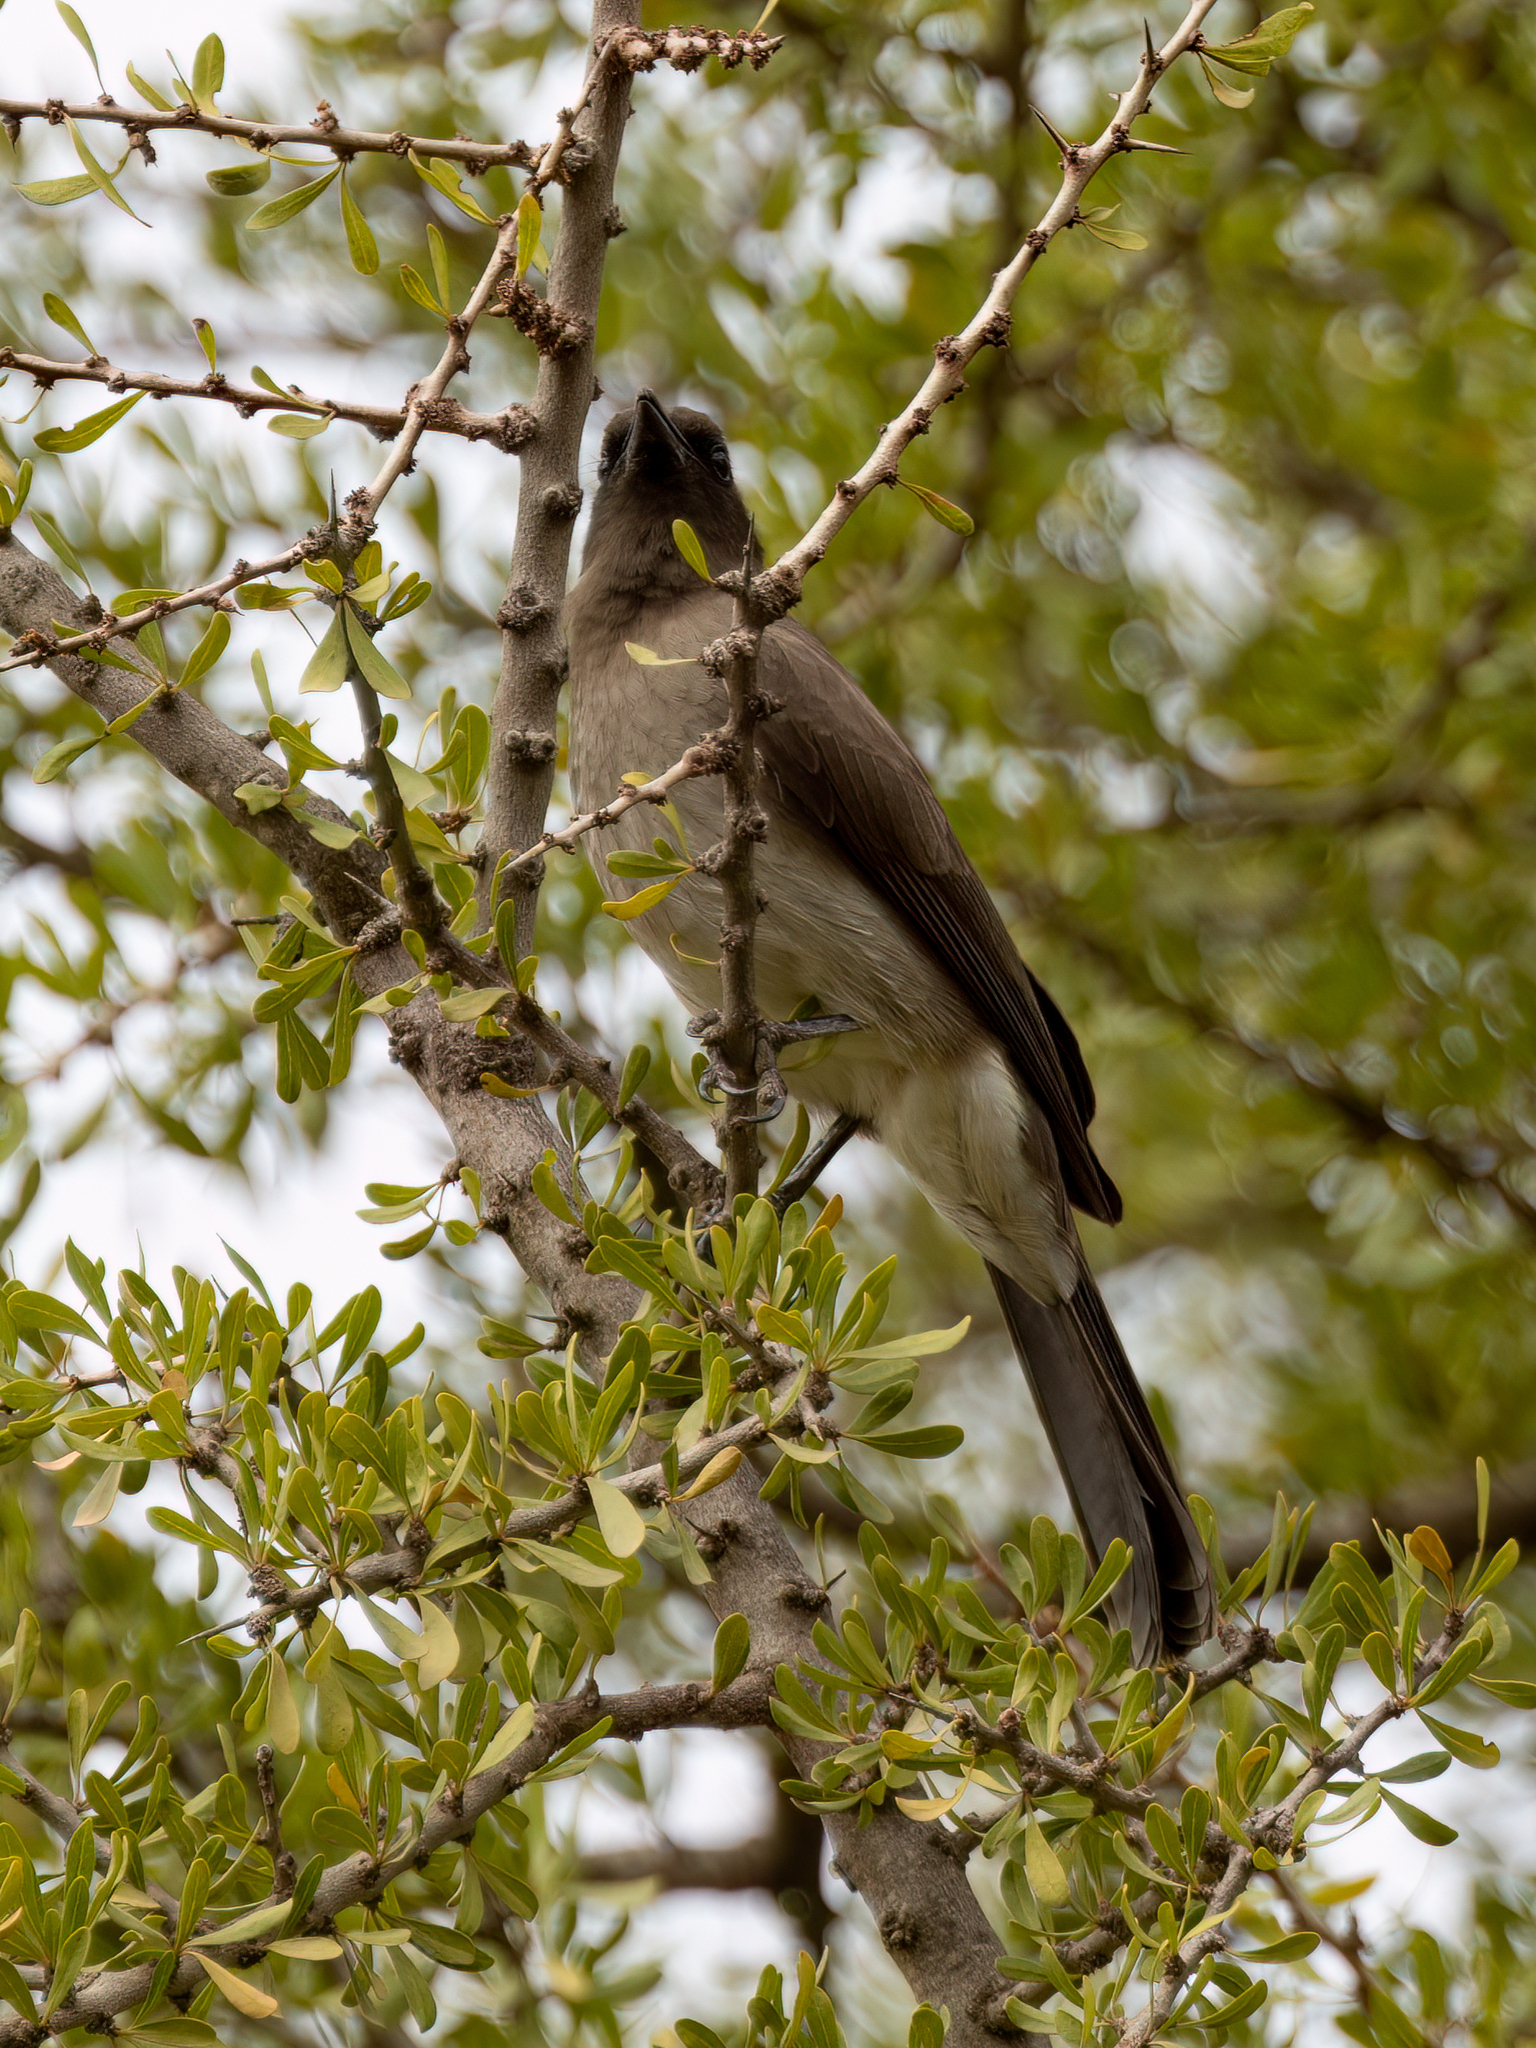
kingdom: Animalia
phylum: Chordata
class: Aves
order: Passeriformes
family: Pycnonotidae
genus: Pycnonotus
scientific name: Pycnonotus barbatus
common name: Common bulbul
